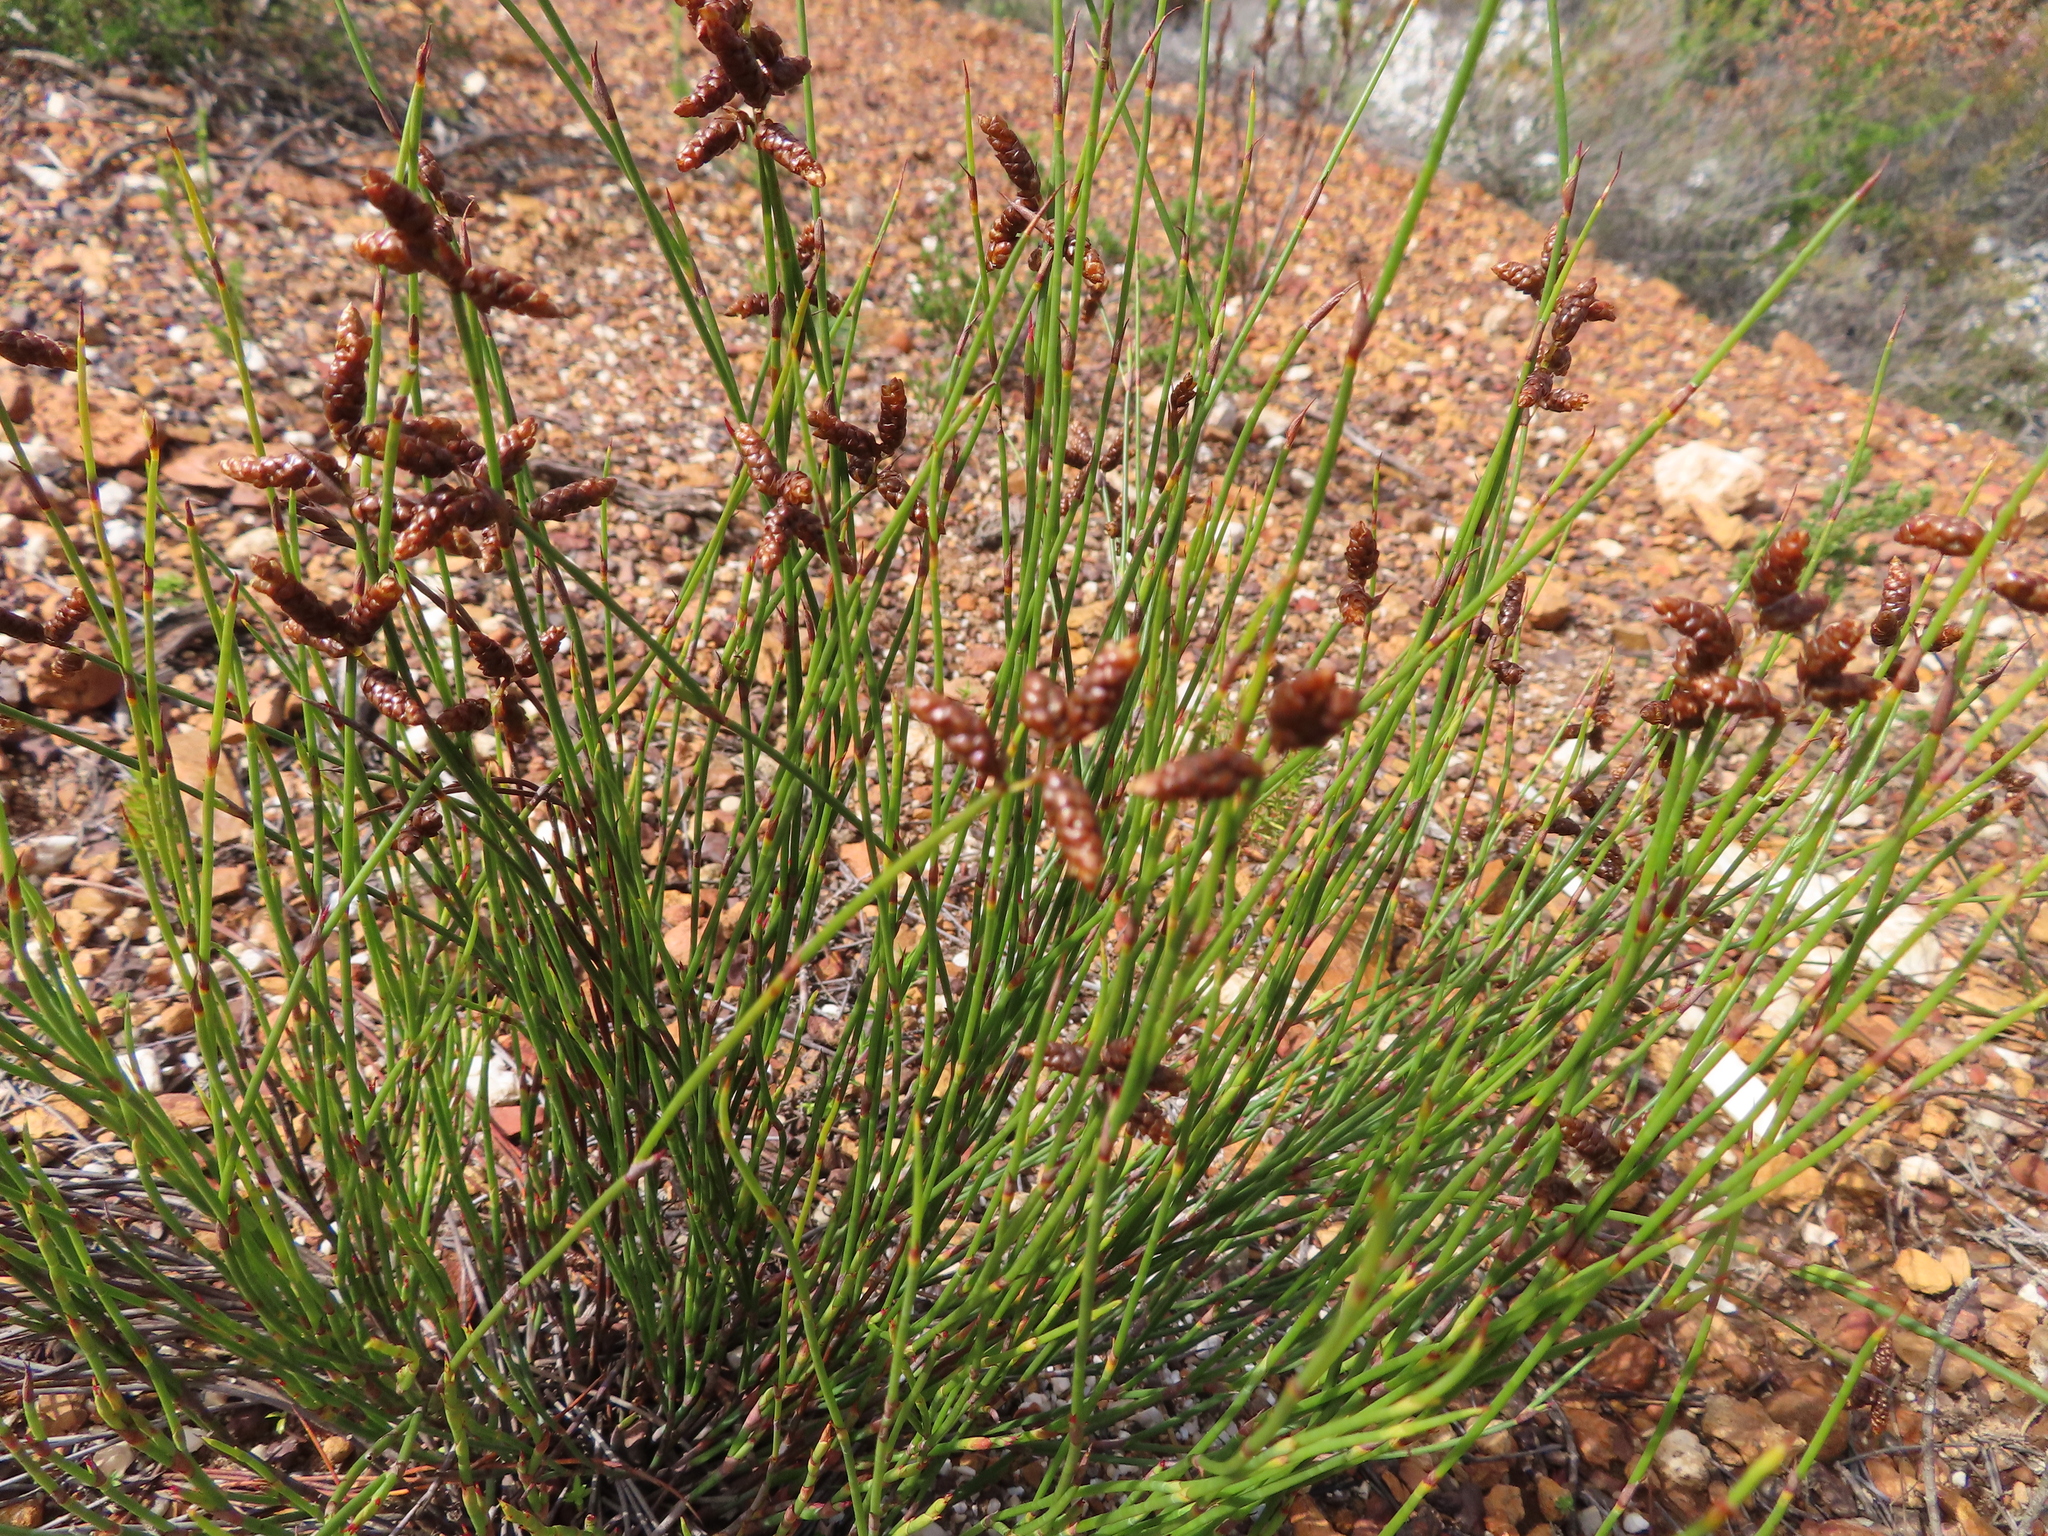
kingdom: Plantae
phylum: Tracheophyta
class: Liliopsida
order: Poales
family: Restionaceae
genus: Nevillea
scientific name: Nevillea obtusissimus
